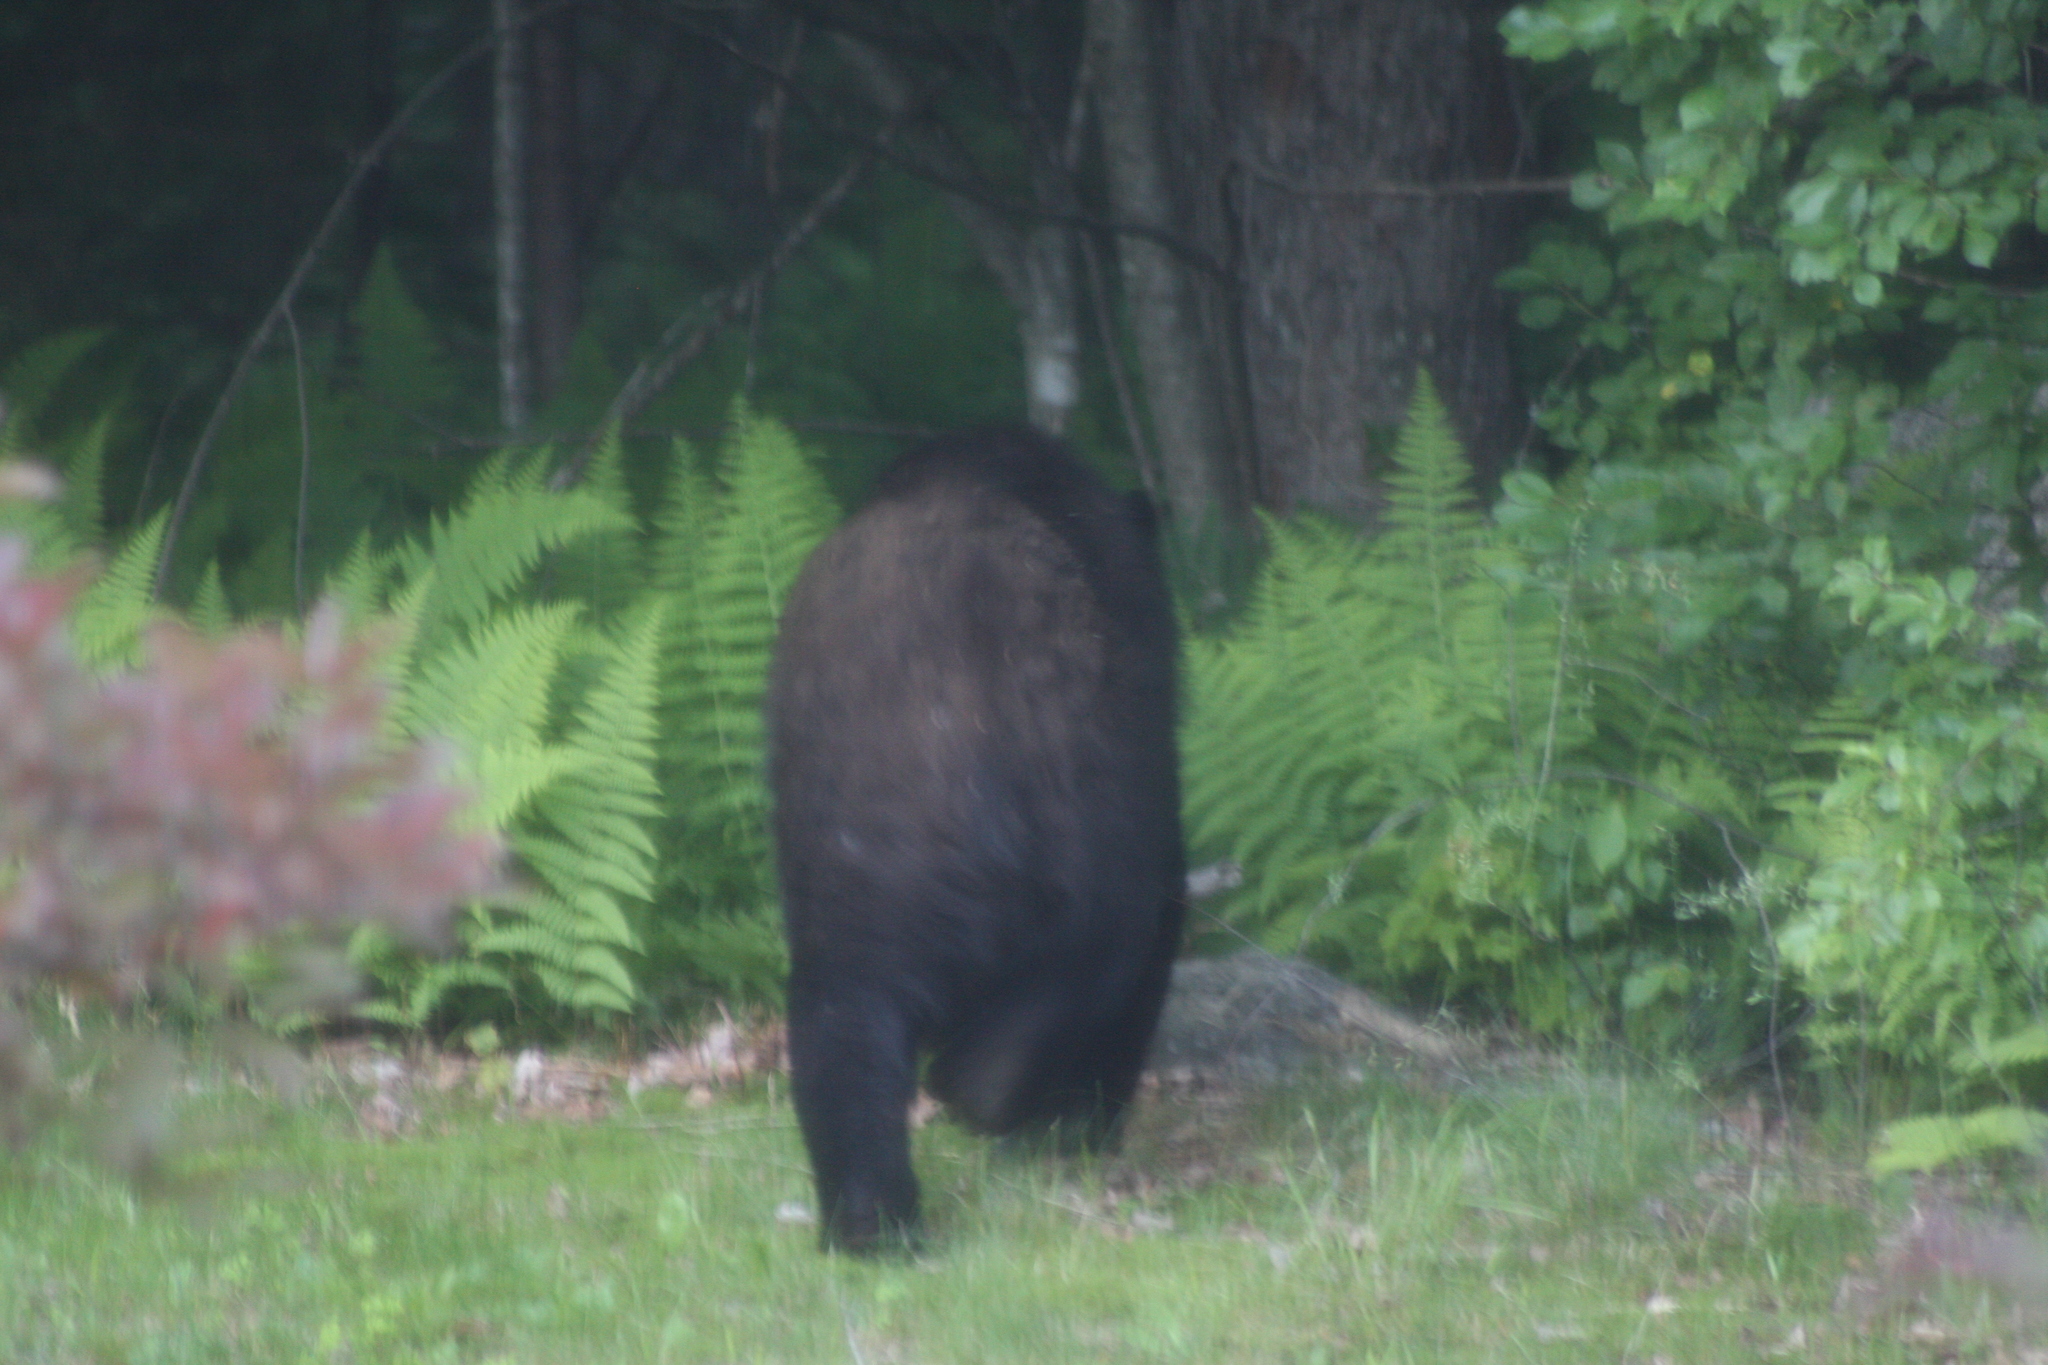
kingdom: Animalia
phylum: Chordata
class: Mammalia
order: Carnivora
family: Ursidae
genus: Ursus
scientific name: Ursus americanus
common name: American black bear
